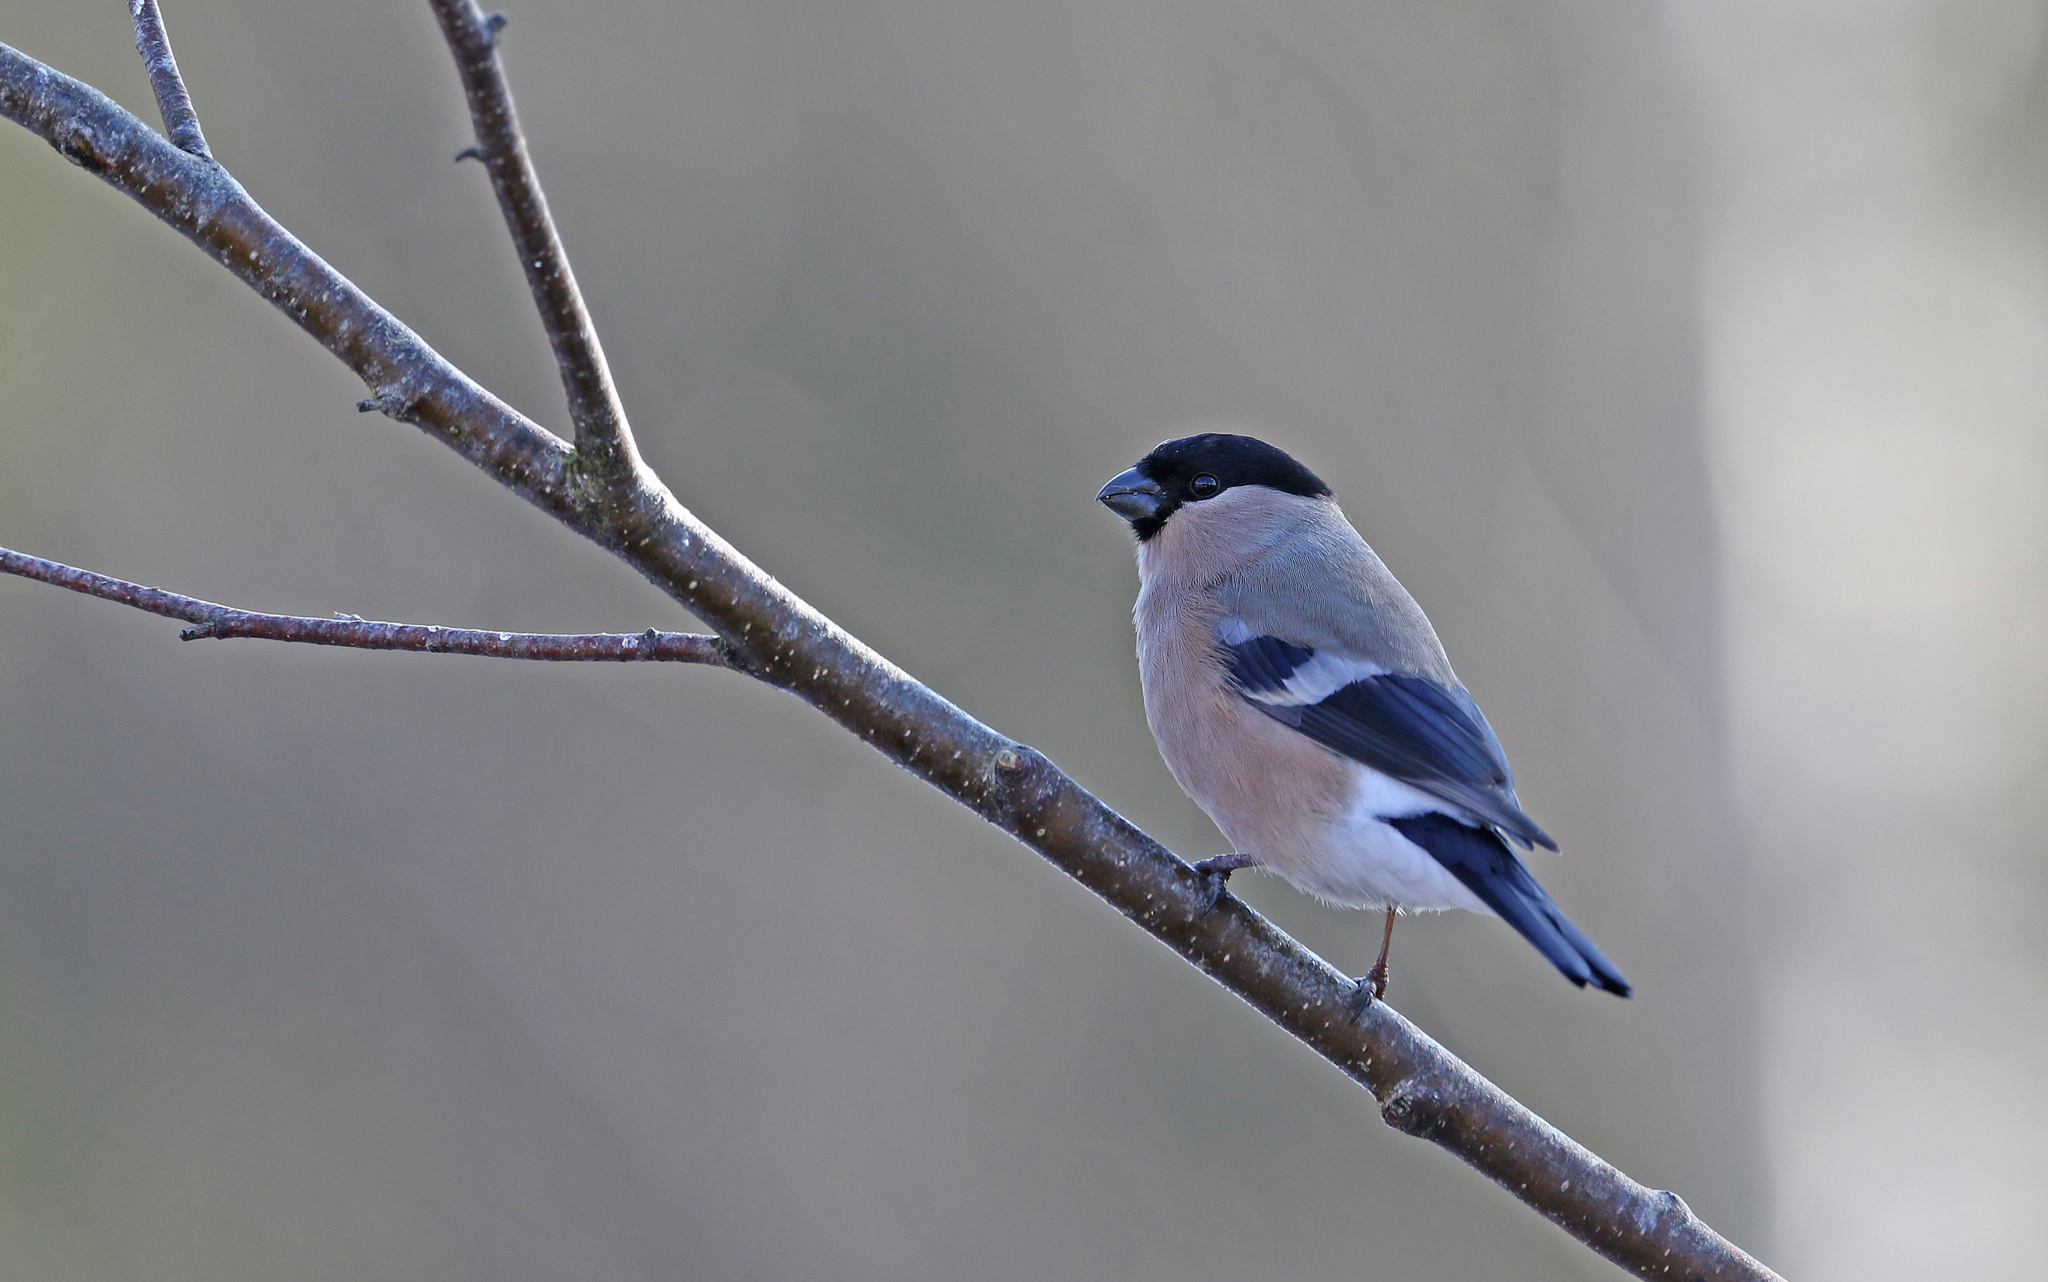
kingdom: Animalia
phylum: Chordata
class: Aves
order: Passeriformes
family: Fringillidae
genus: Pyrrhula
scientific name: Pyrrhula pyrrhula
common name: Eurasian bullfinch
